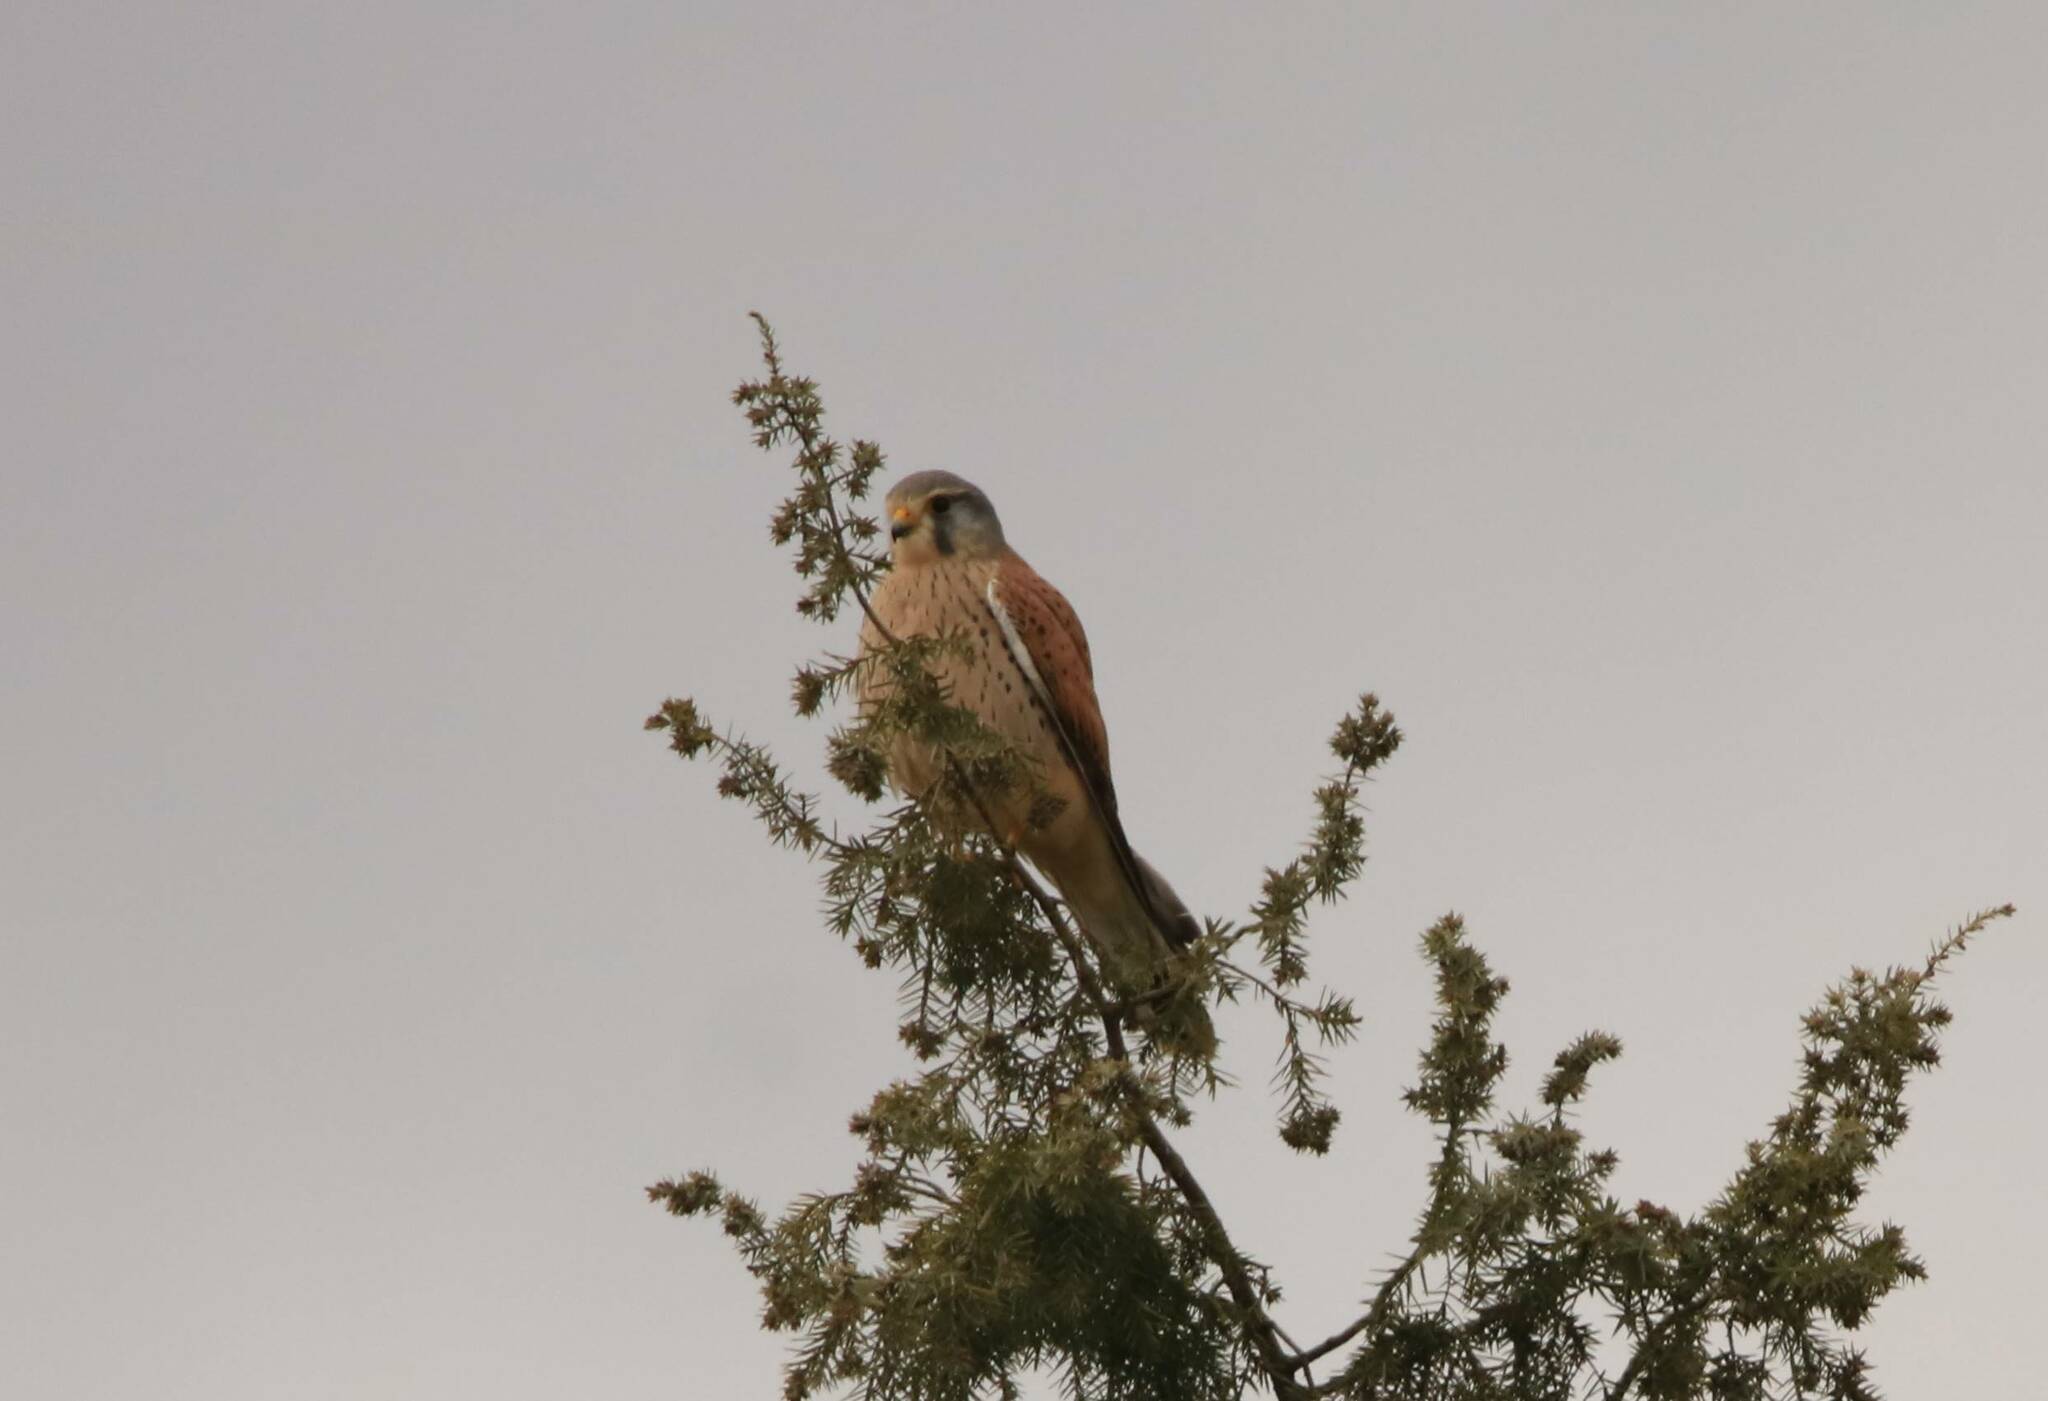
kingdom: Animalia
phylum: Chordata
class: Aves
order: Falconiformes
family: Falconidae
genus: Falco
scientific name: Falco tinnunculus
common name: Common kestrel
